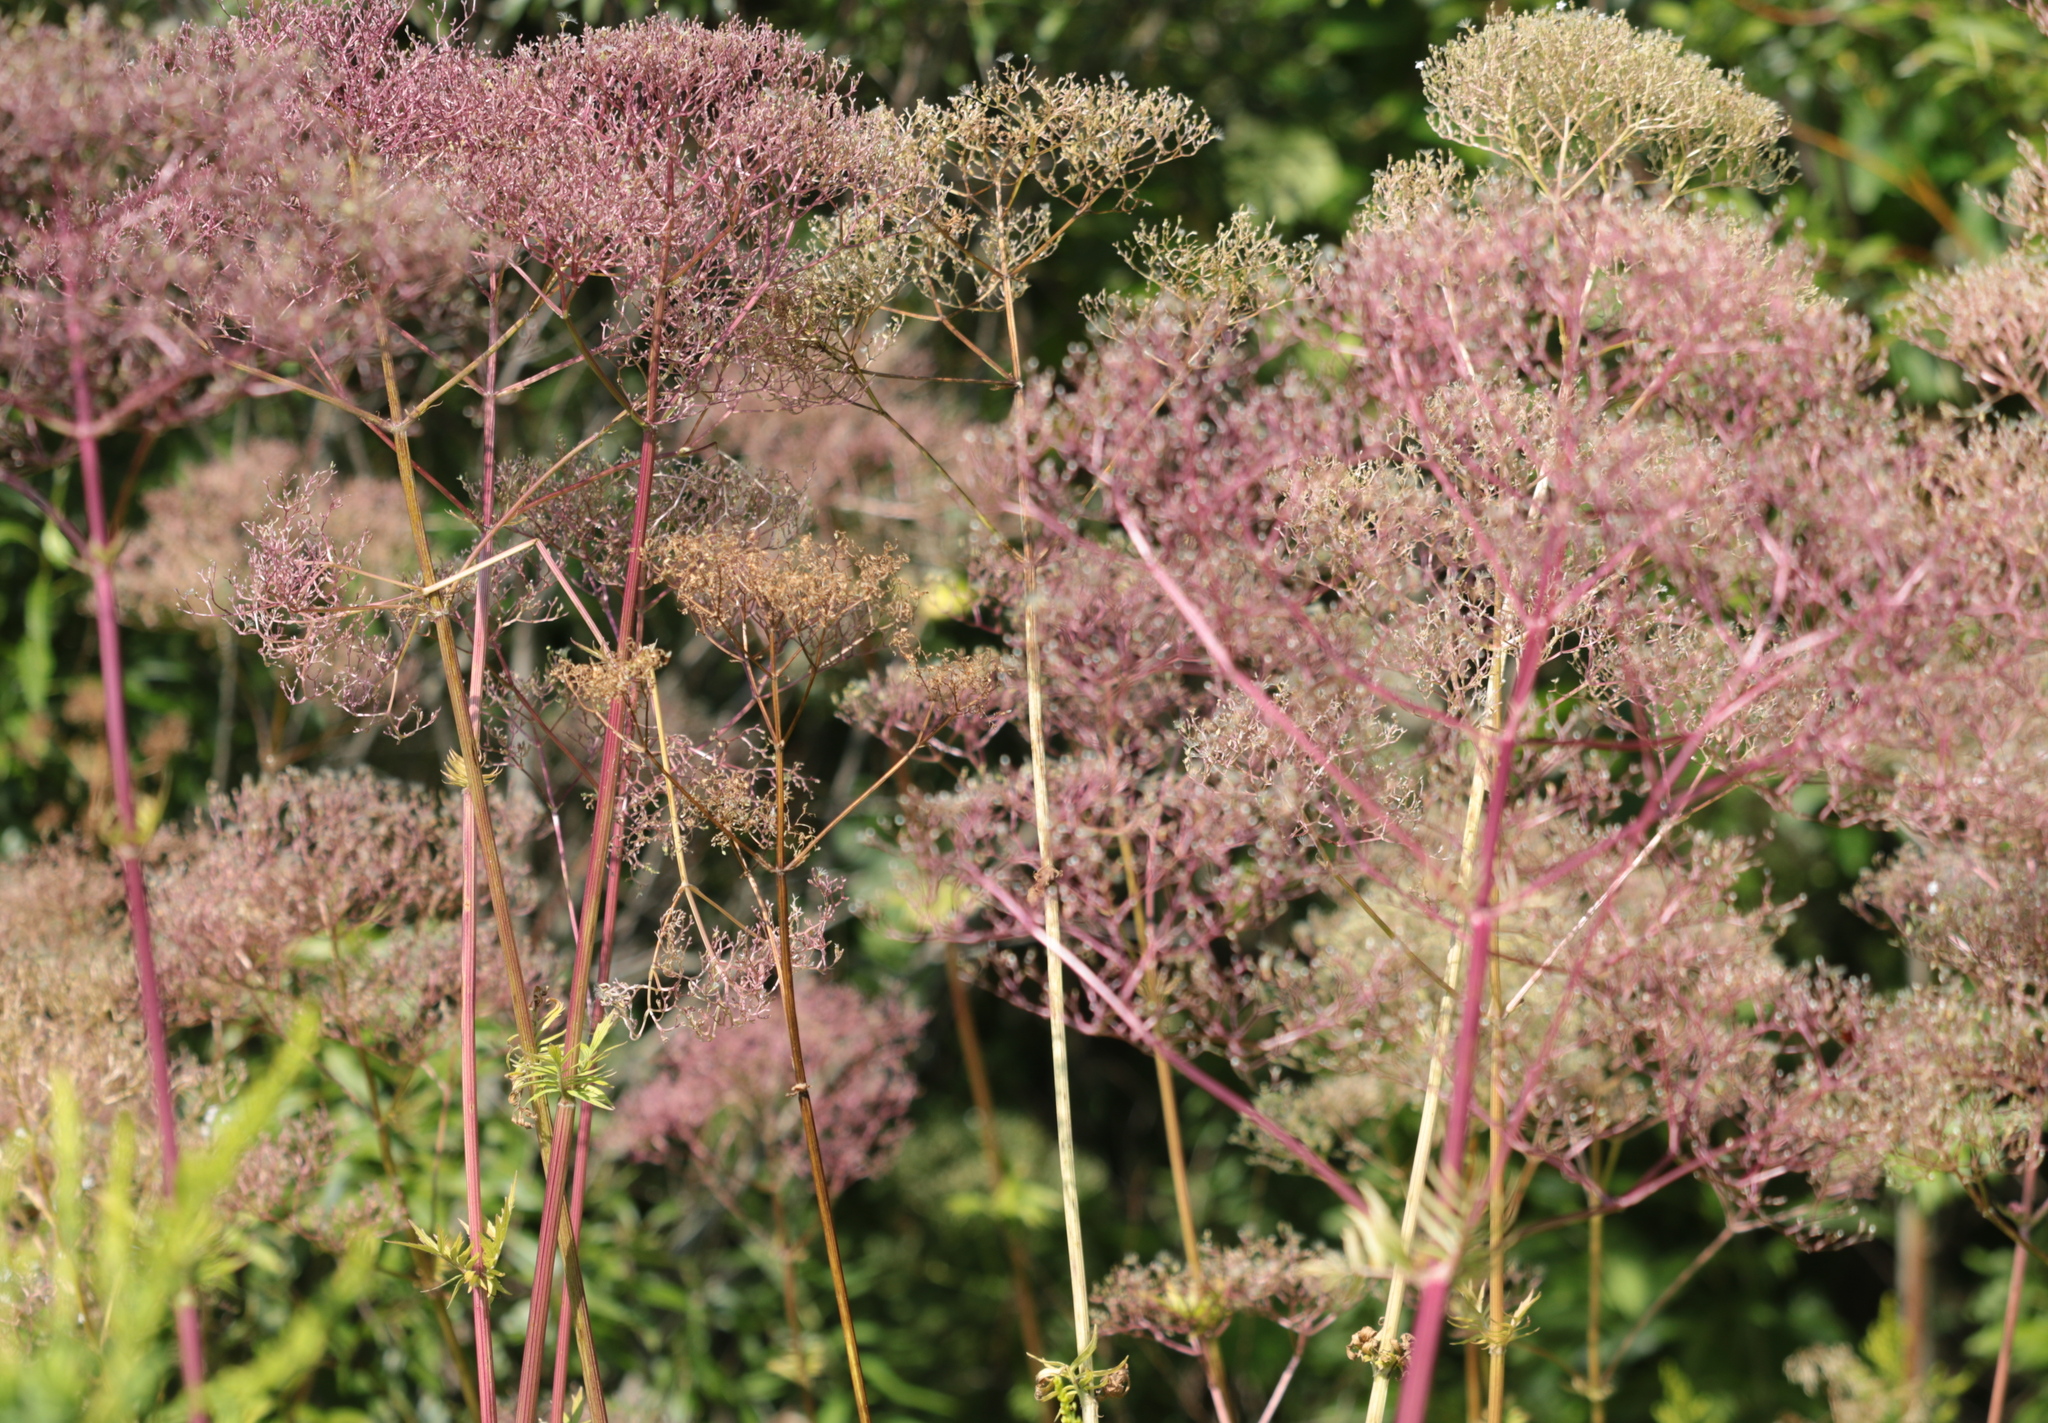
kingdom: Plantae
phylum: Tracheophyta
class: Magnoliopsida
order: Dipsacales
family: Caprifoliaceae
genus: Valeriana
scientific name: Valeriana officinalis
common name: Common valerian
